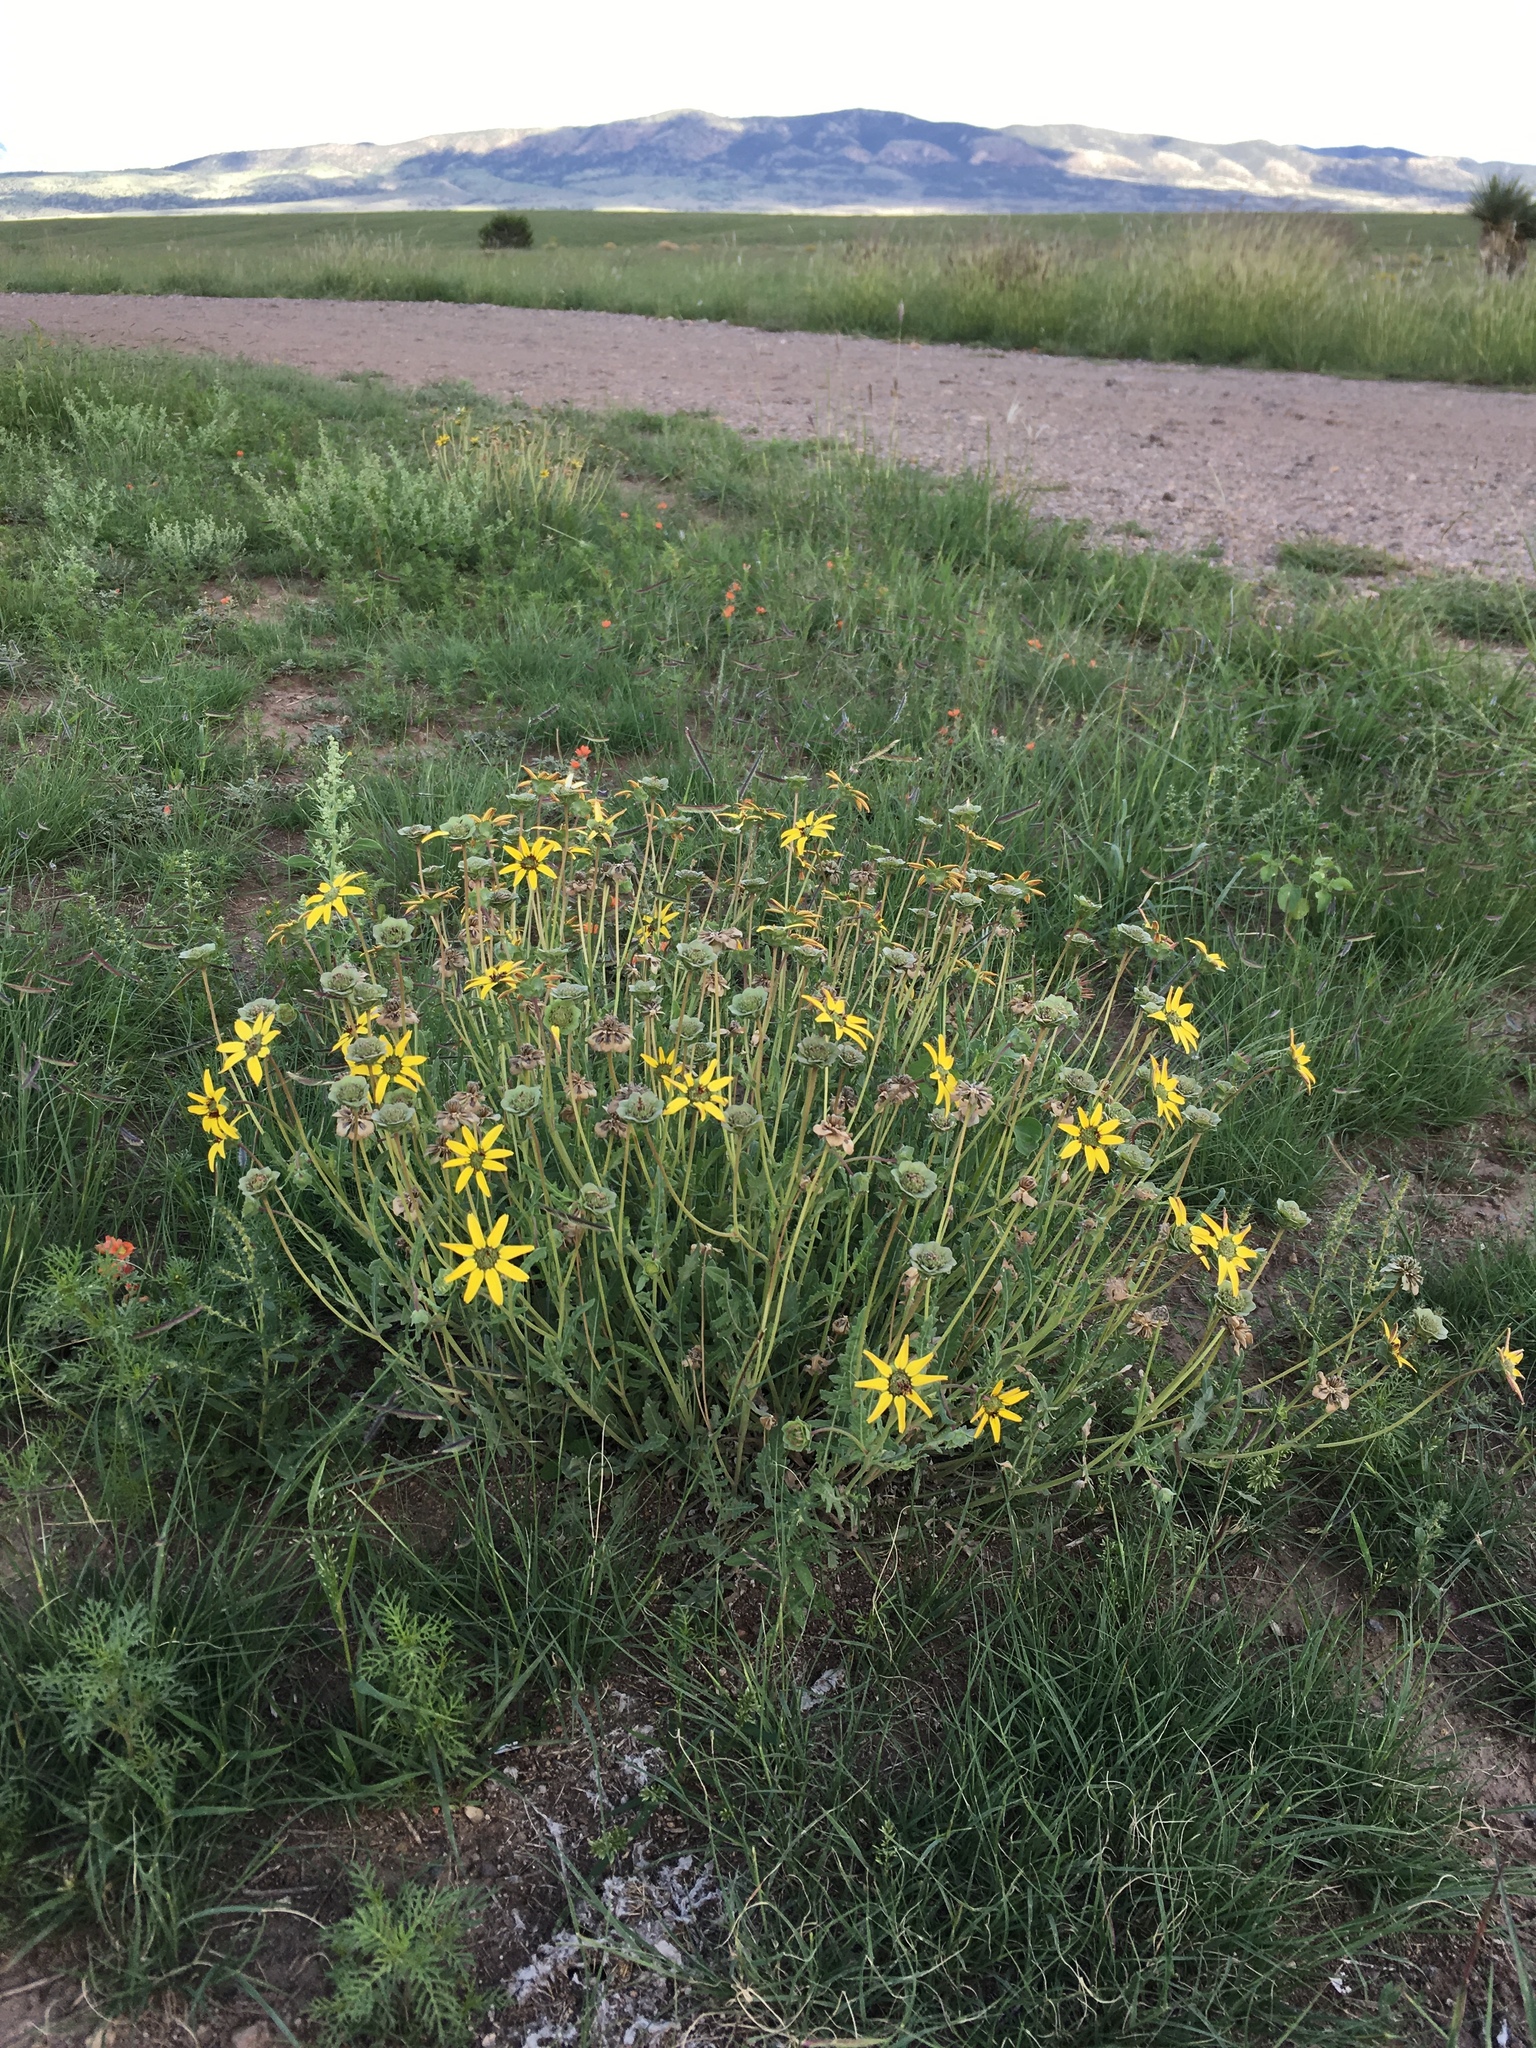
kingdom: Plantae
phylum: Tracheophyta
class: Magnoliopsida
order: Asterales
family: Asteraceae
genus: Berlandiera
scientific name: Berlandiera lyrata
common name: Chocolate-flower
